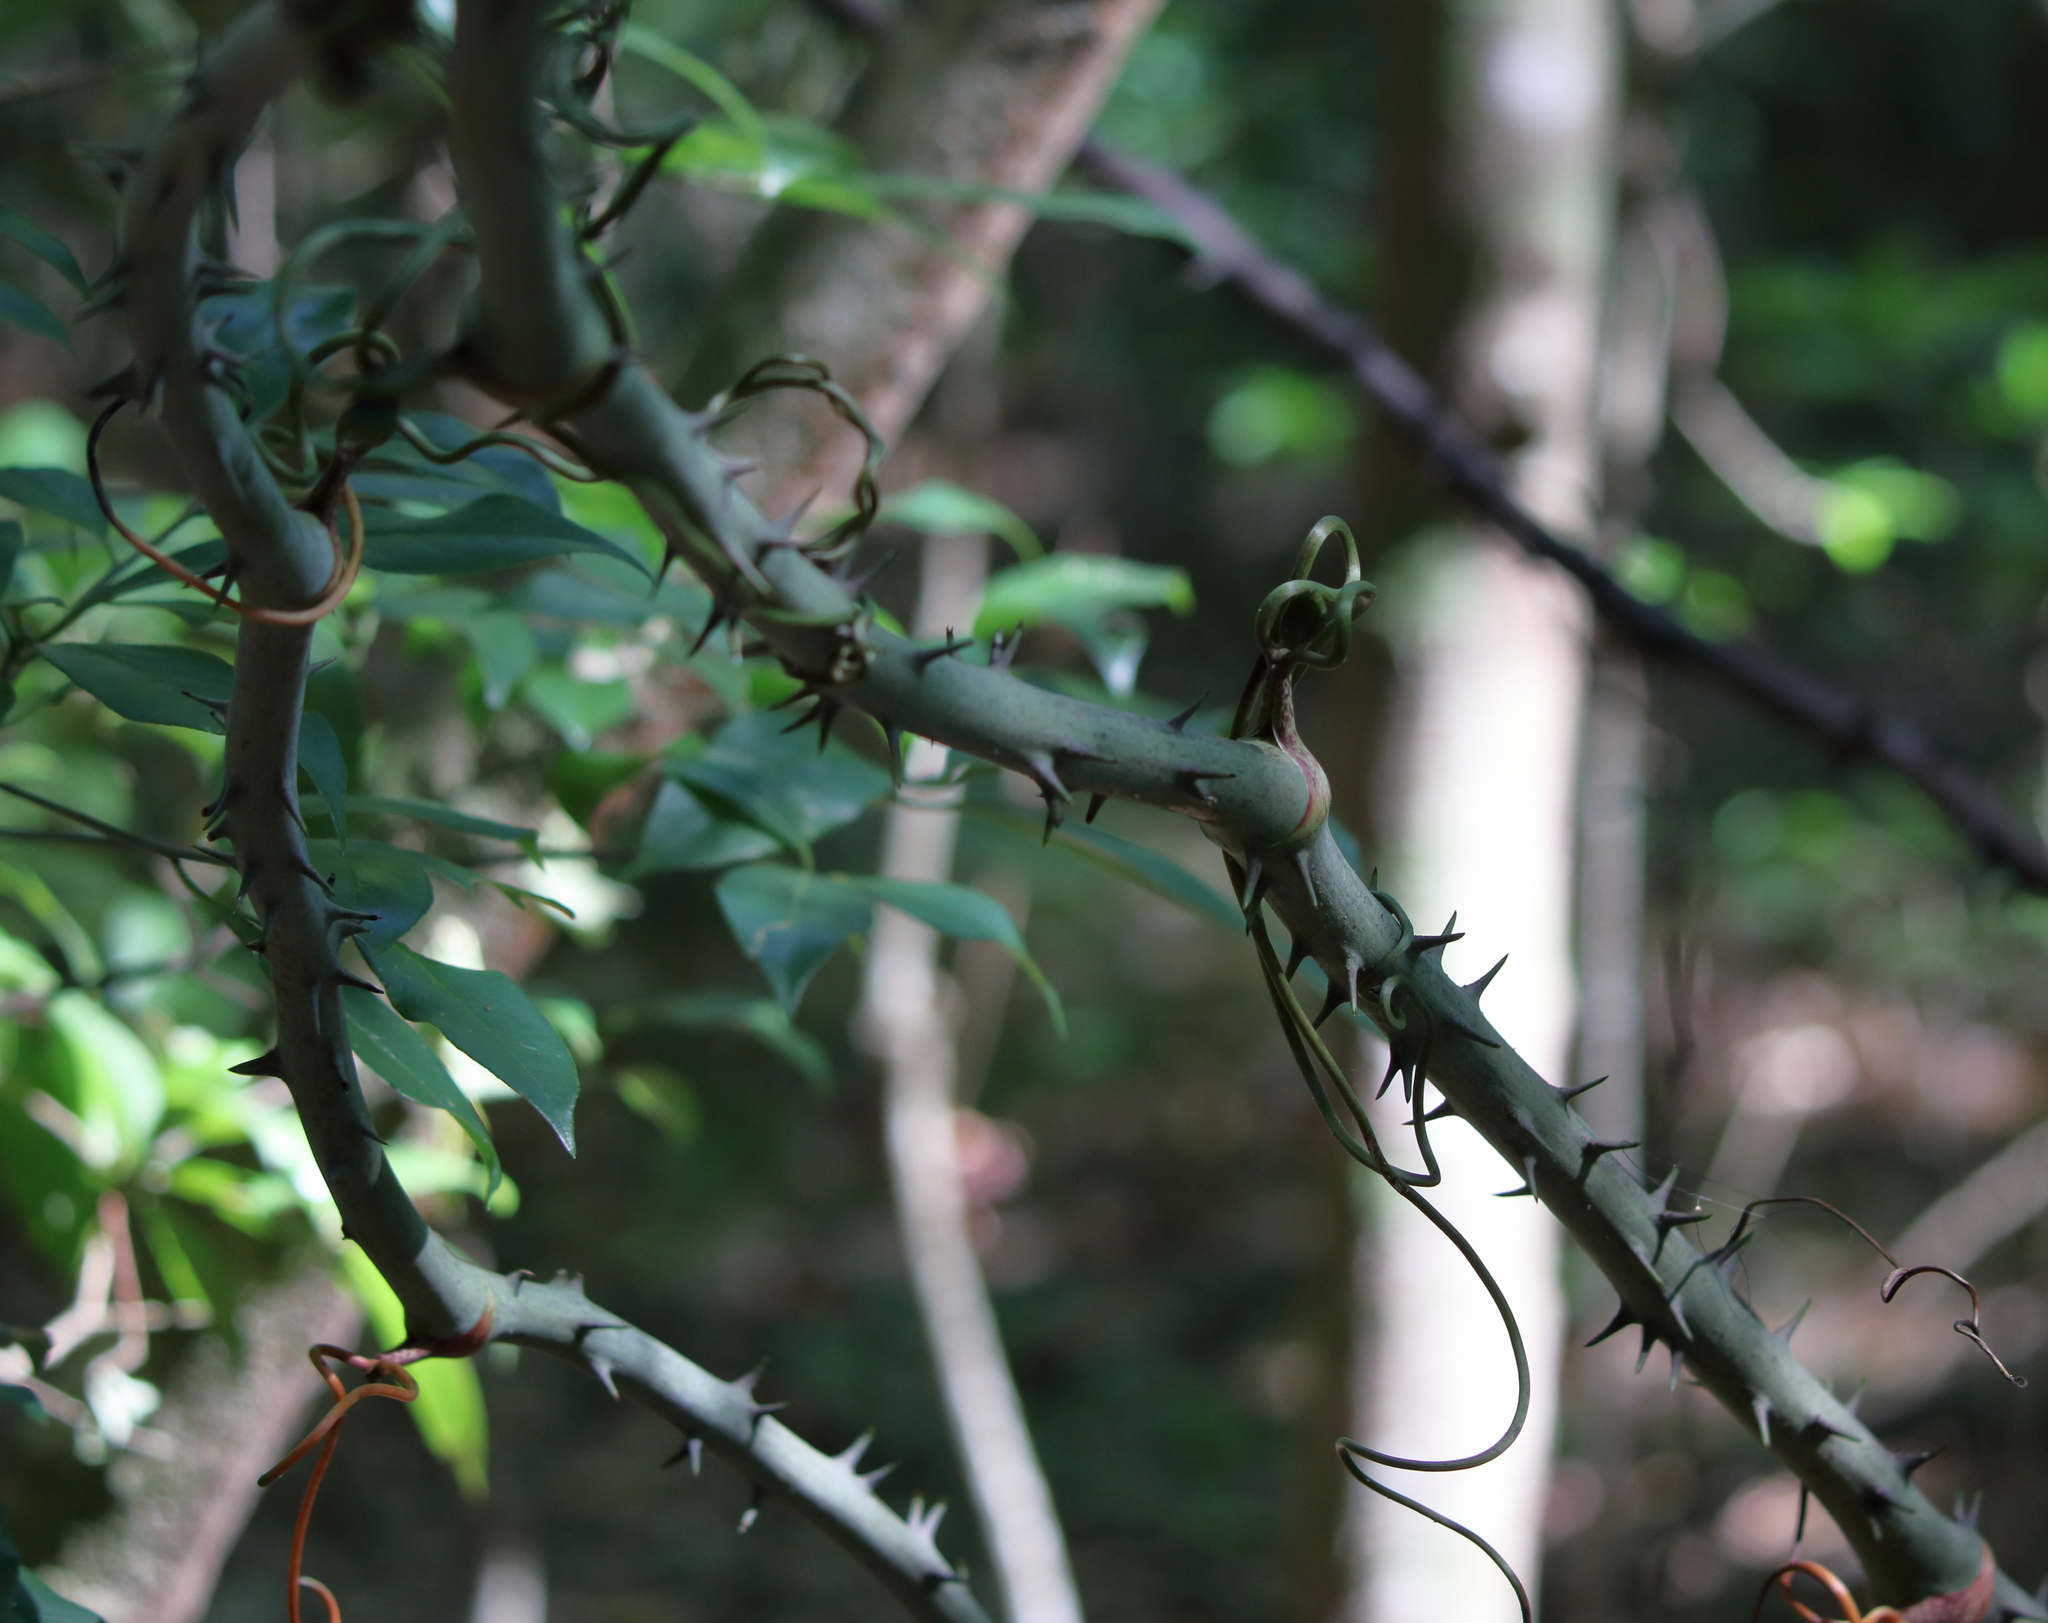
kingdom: Plantae
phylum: Tracheophyta
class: Liliopsida
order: Liliales
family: Smilacaceae
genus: Smilax
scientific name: Smilax maritima
